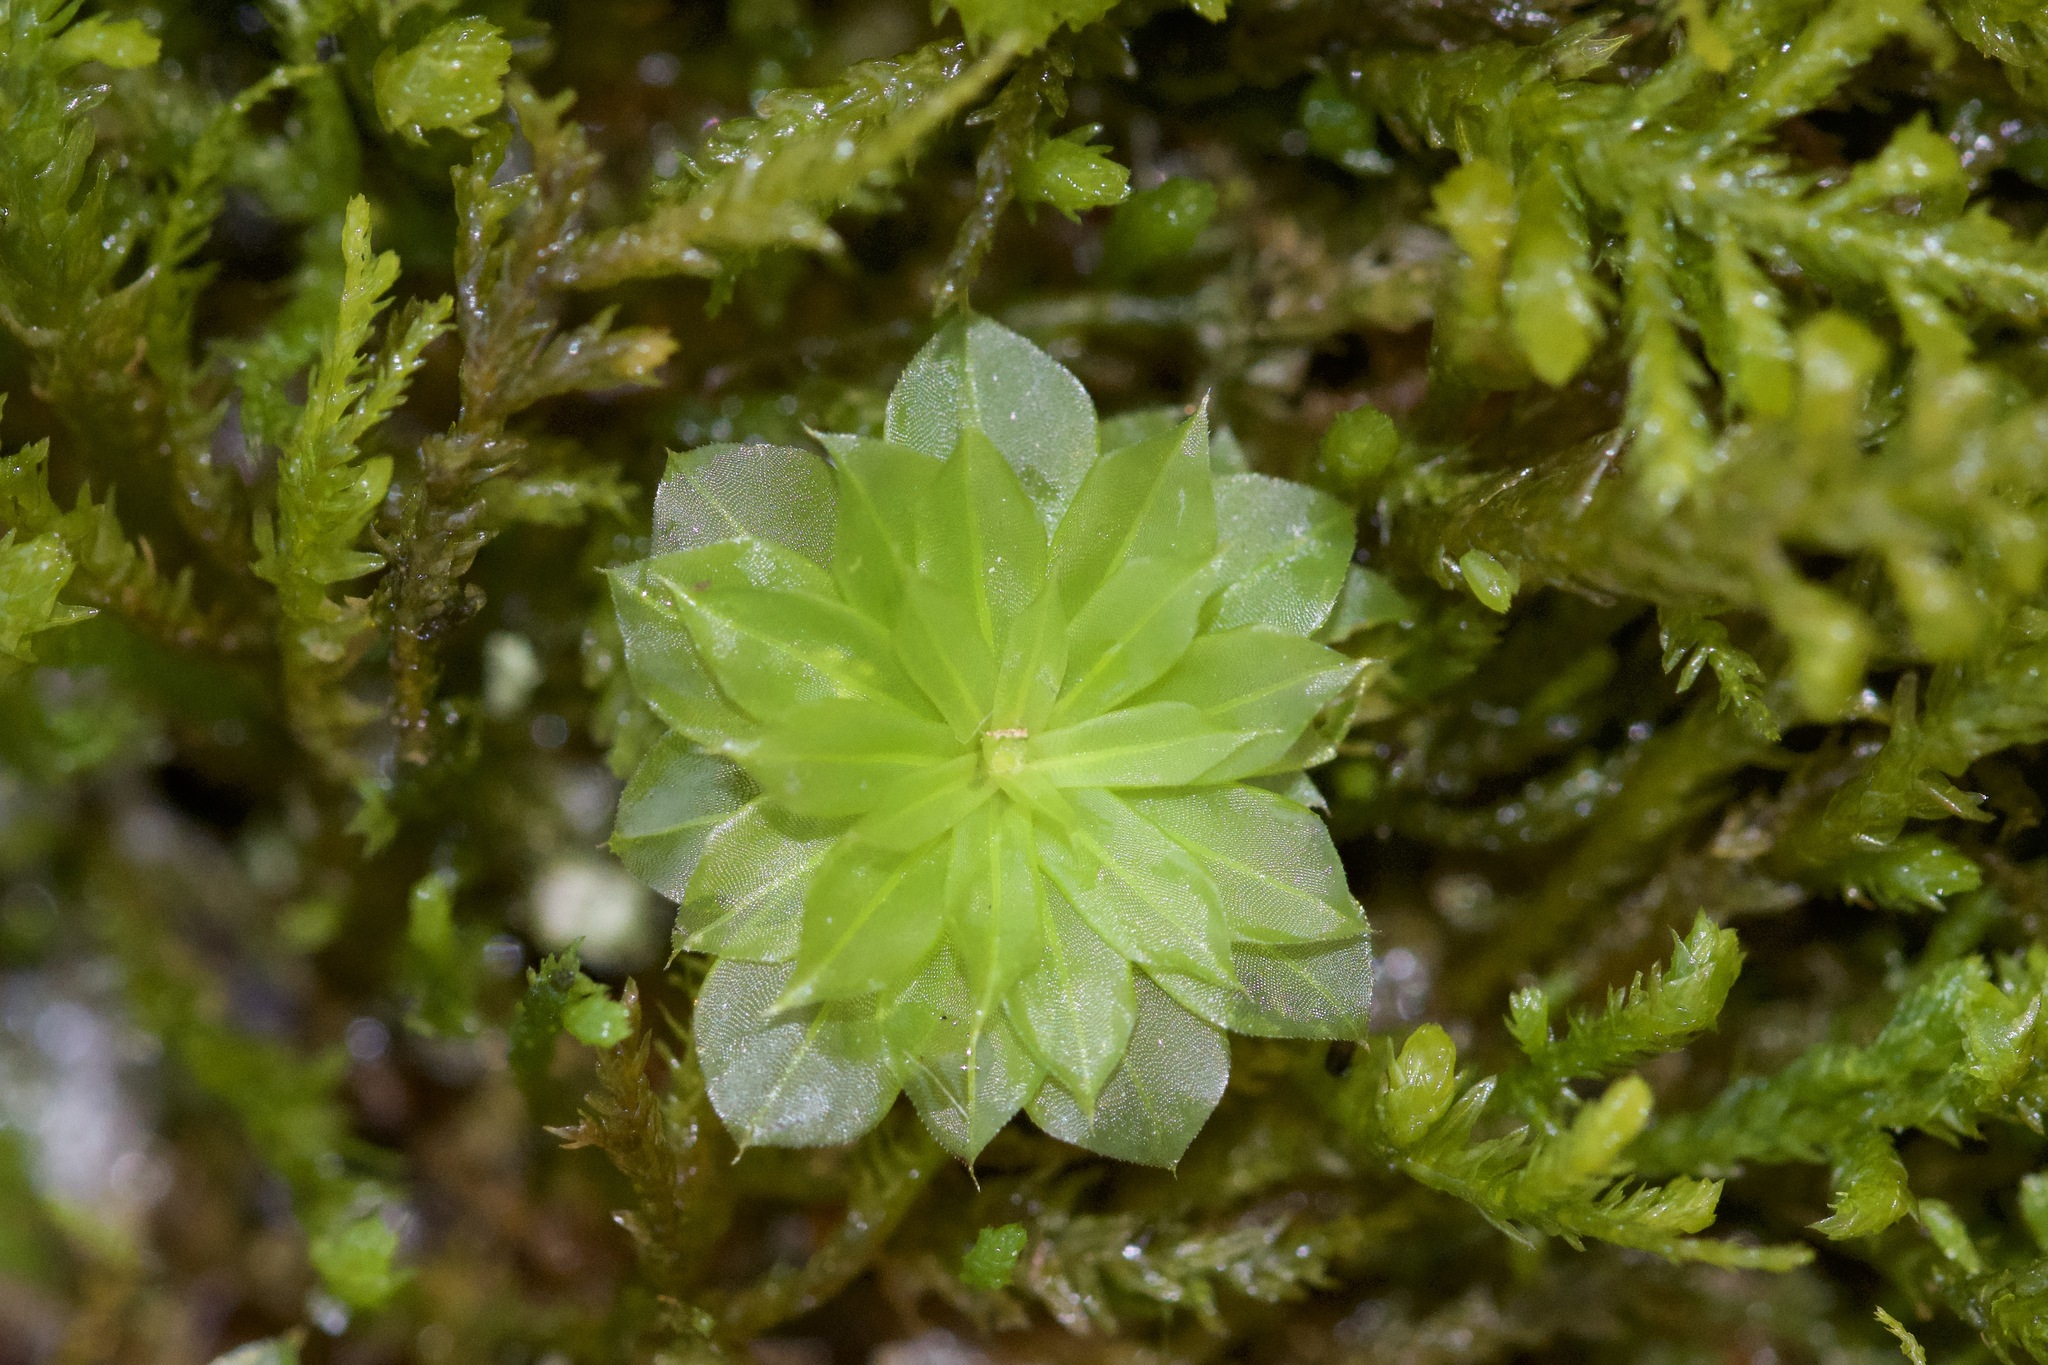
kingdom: Plantae
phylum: Bryophyta
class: Bryopsida
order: Bryales
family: Bryaceae
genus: Rhodobryum
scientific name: Rhodobryum ontariense
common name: Ontario rhodobryum moss
